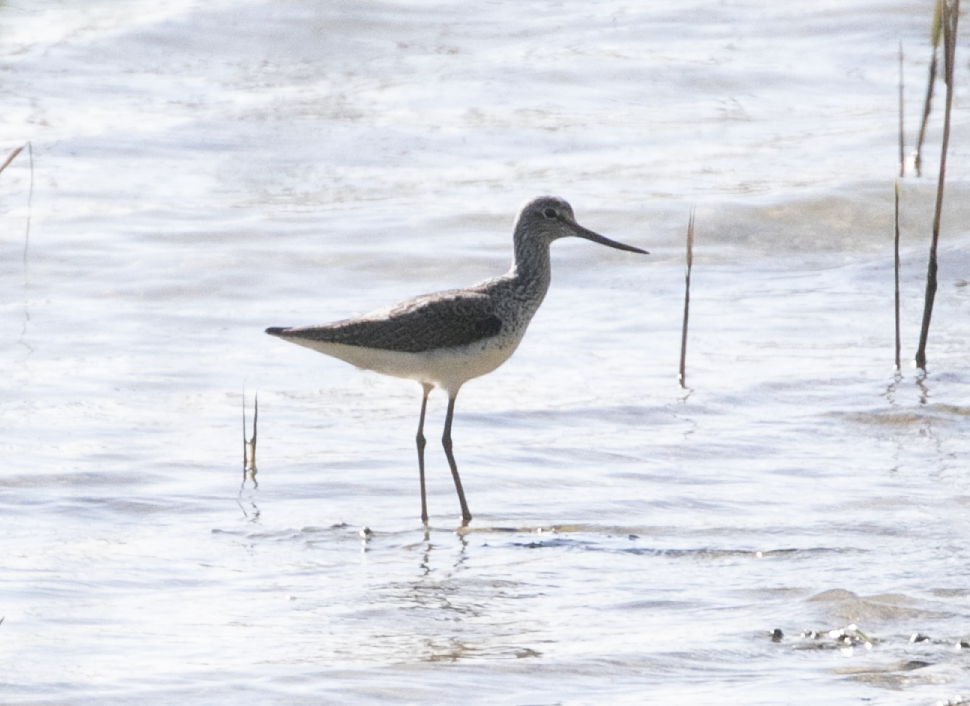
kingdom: Animalia
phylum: Chordata
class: Aves
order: Charadriiformes
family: Scolopacidae
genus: Tringa
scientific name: Tringa nebularia
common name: Common greenshank
